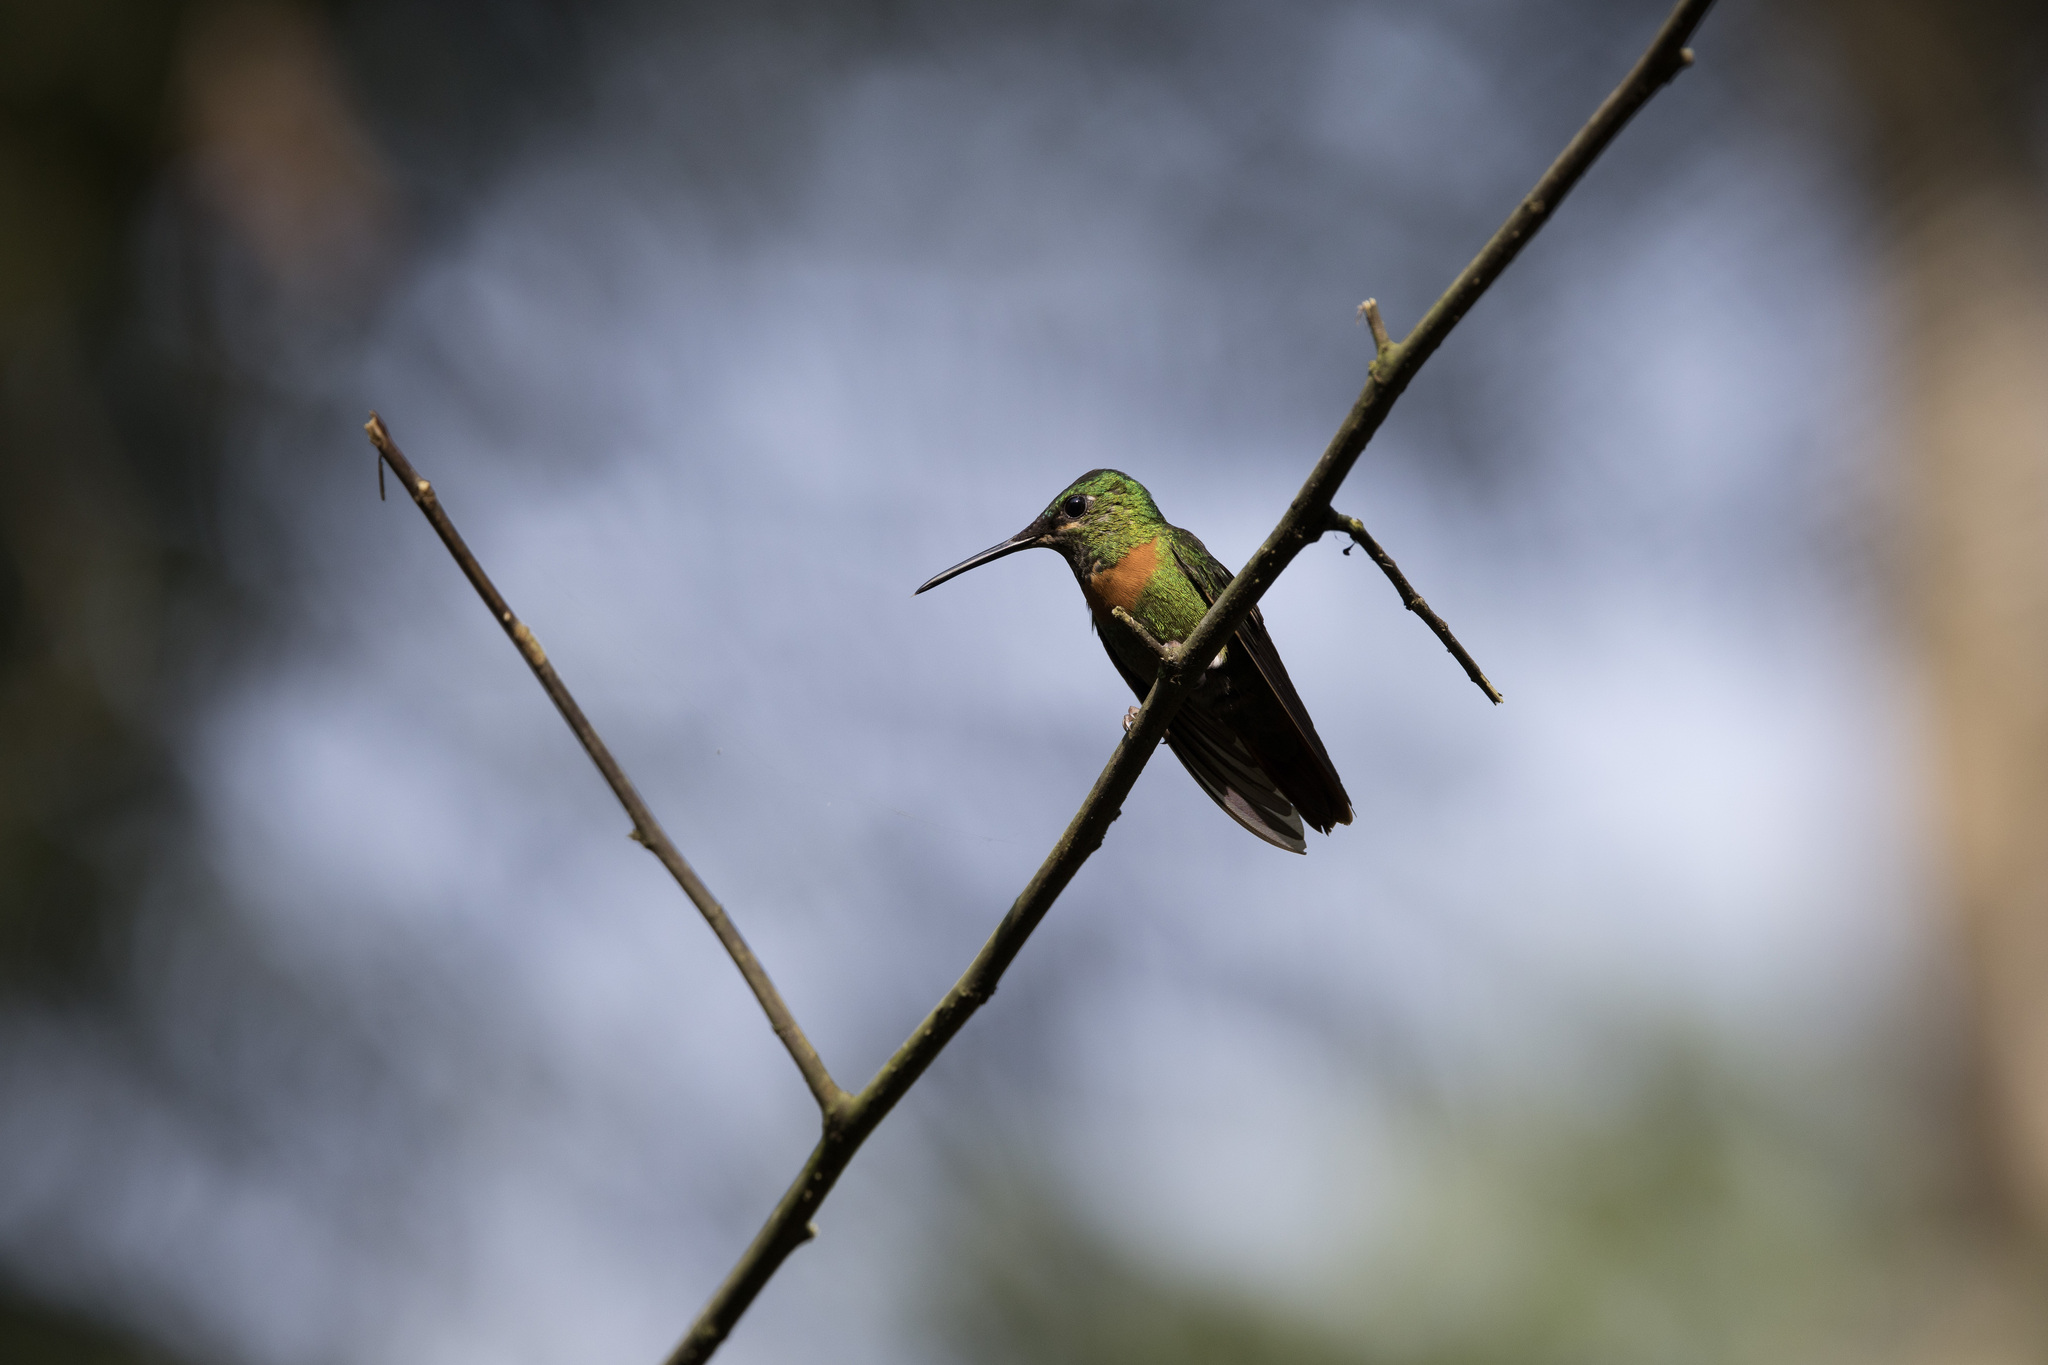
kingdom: Animalia
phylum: Chordata
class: Aves
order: Apodiformes
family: Trochilidae
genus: Heliodoxa
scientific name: Heliodoxa aurescens
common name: Gould's jewelfront
